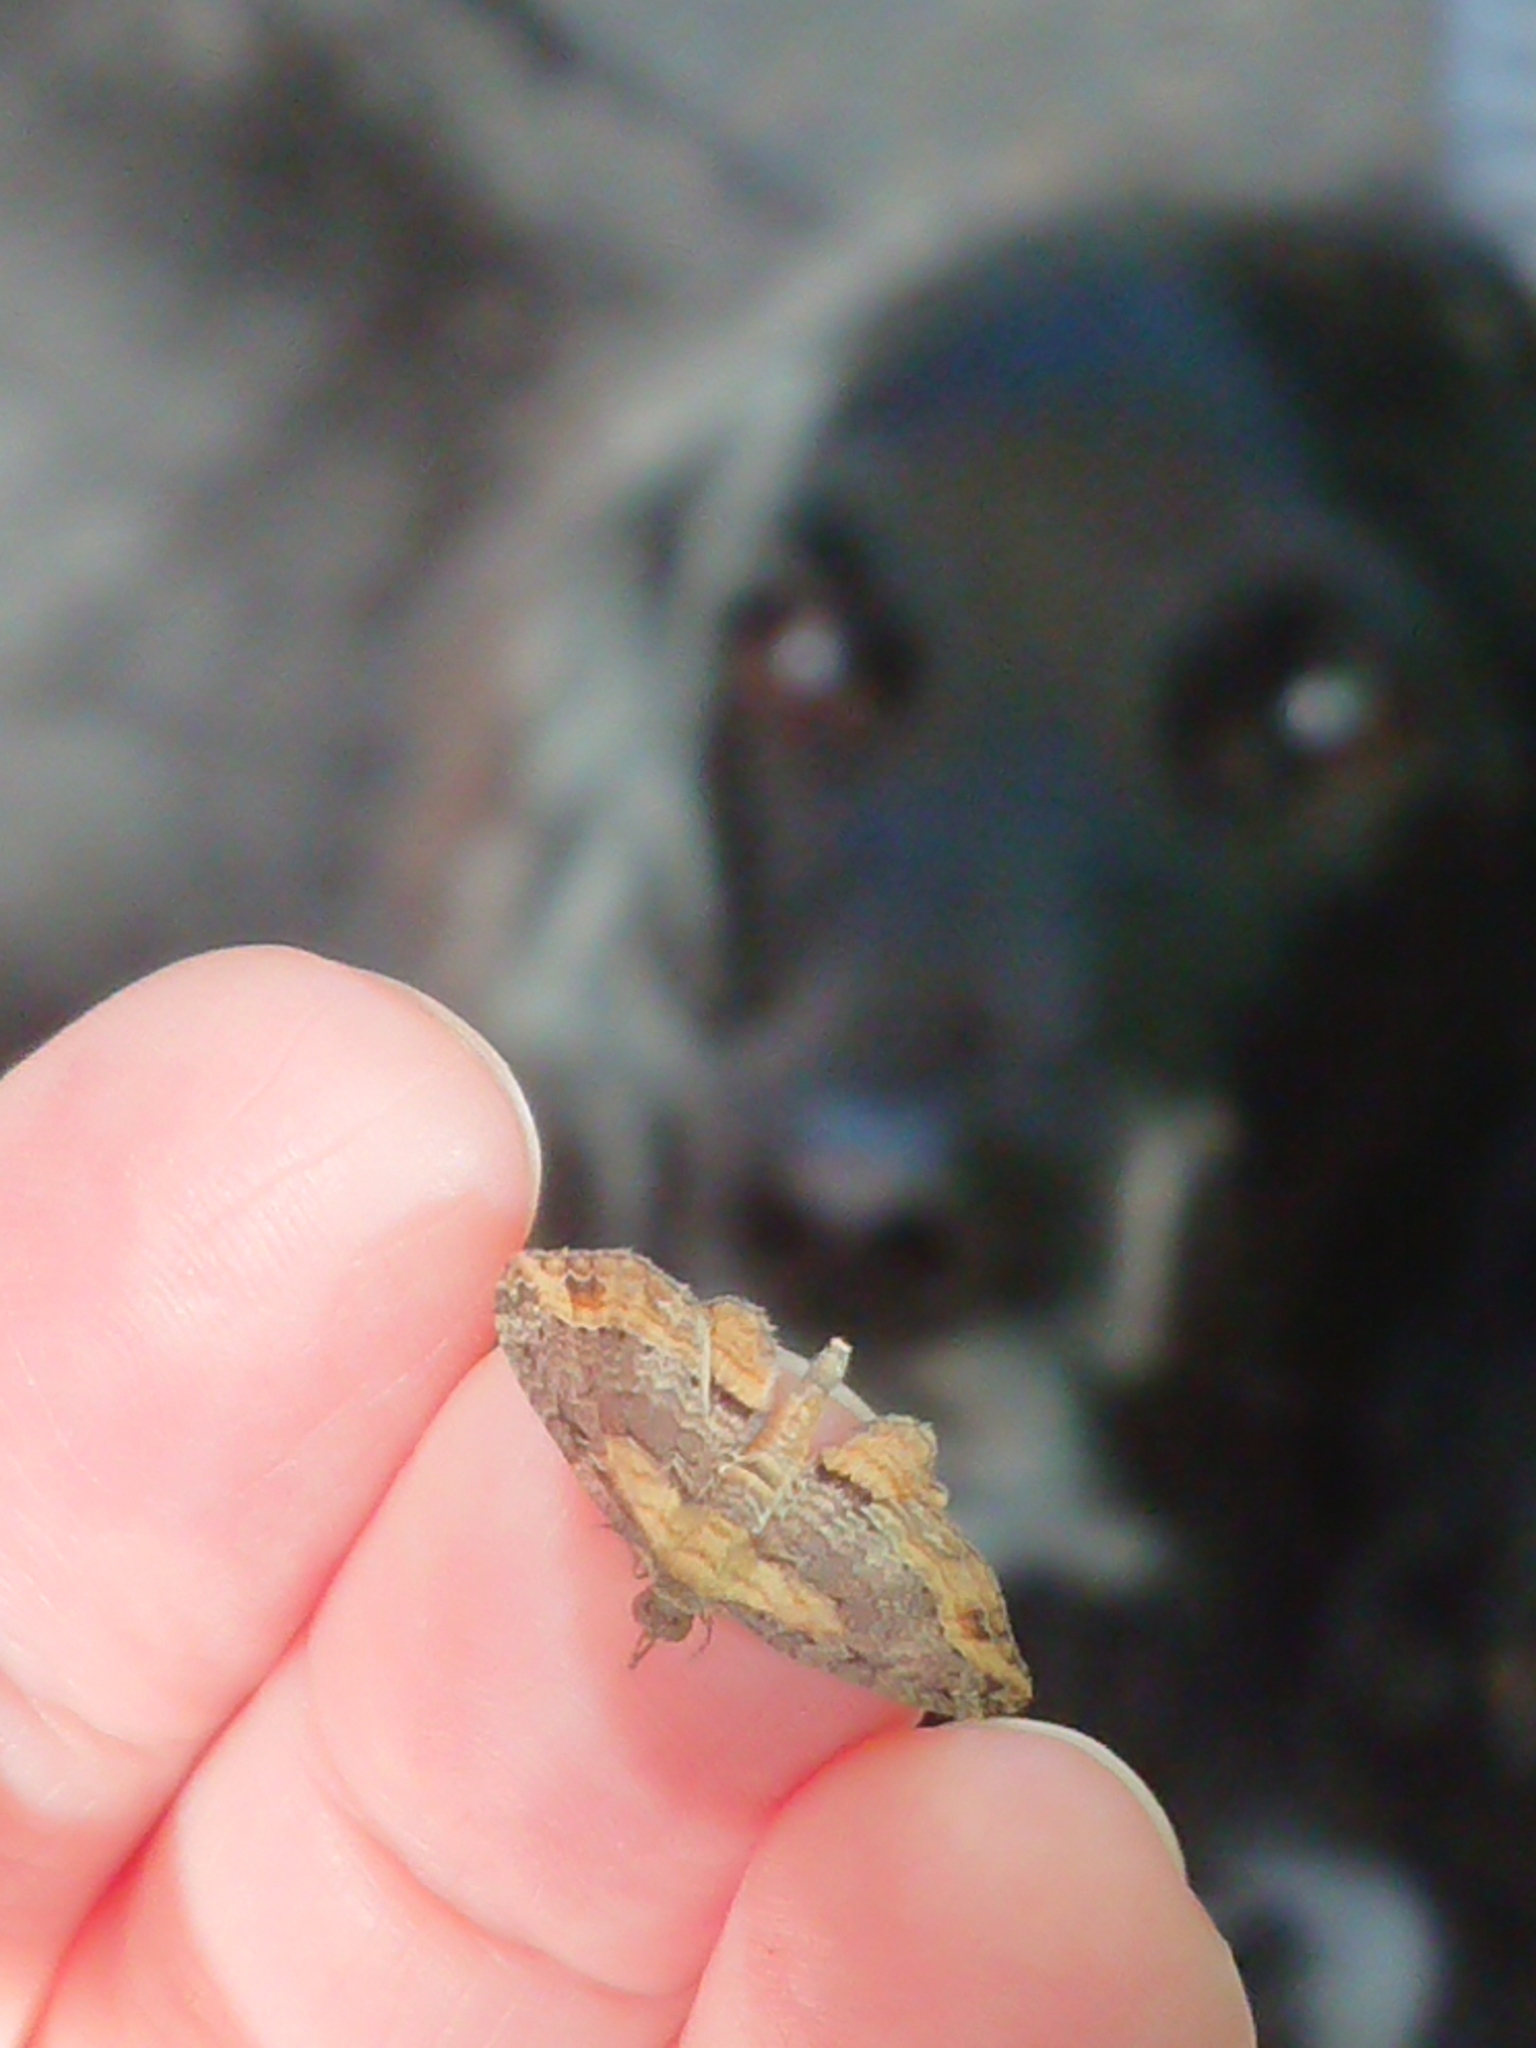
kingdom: Animalia
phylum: Arthropoda
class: Insecta
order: Lepidoptera
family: Geometridae
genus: Chloroclystis
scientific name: Chloroclystis filata
